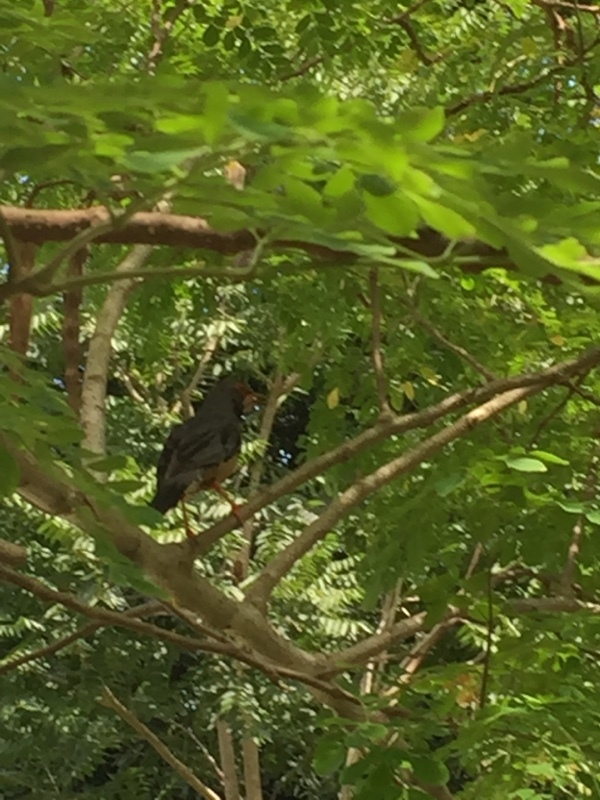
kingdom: Animalia
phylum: Chordata
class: Aves
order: Passeriformes
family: Turdidae
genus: Turdus
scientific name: Turdus plumbeus
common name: Red-legged thrush
